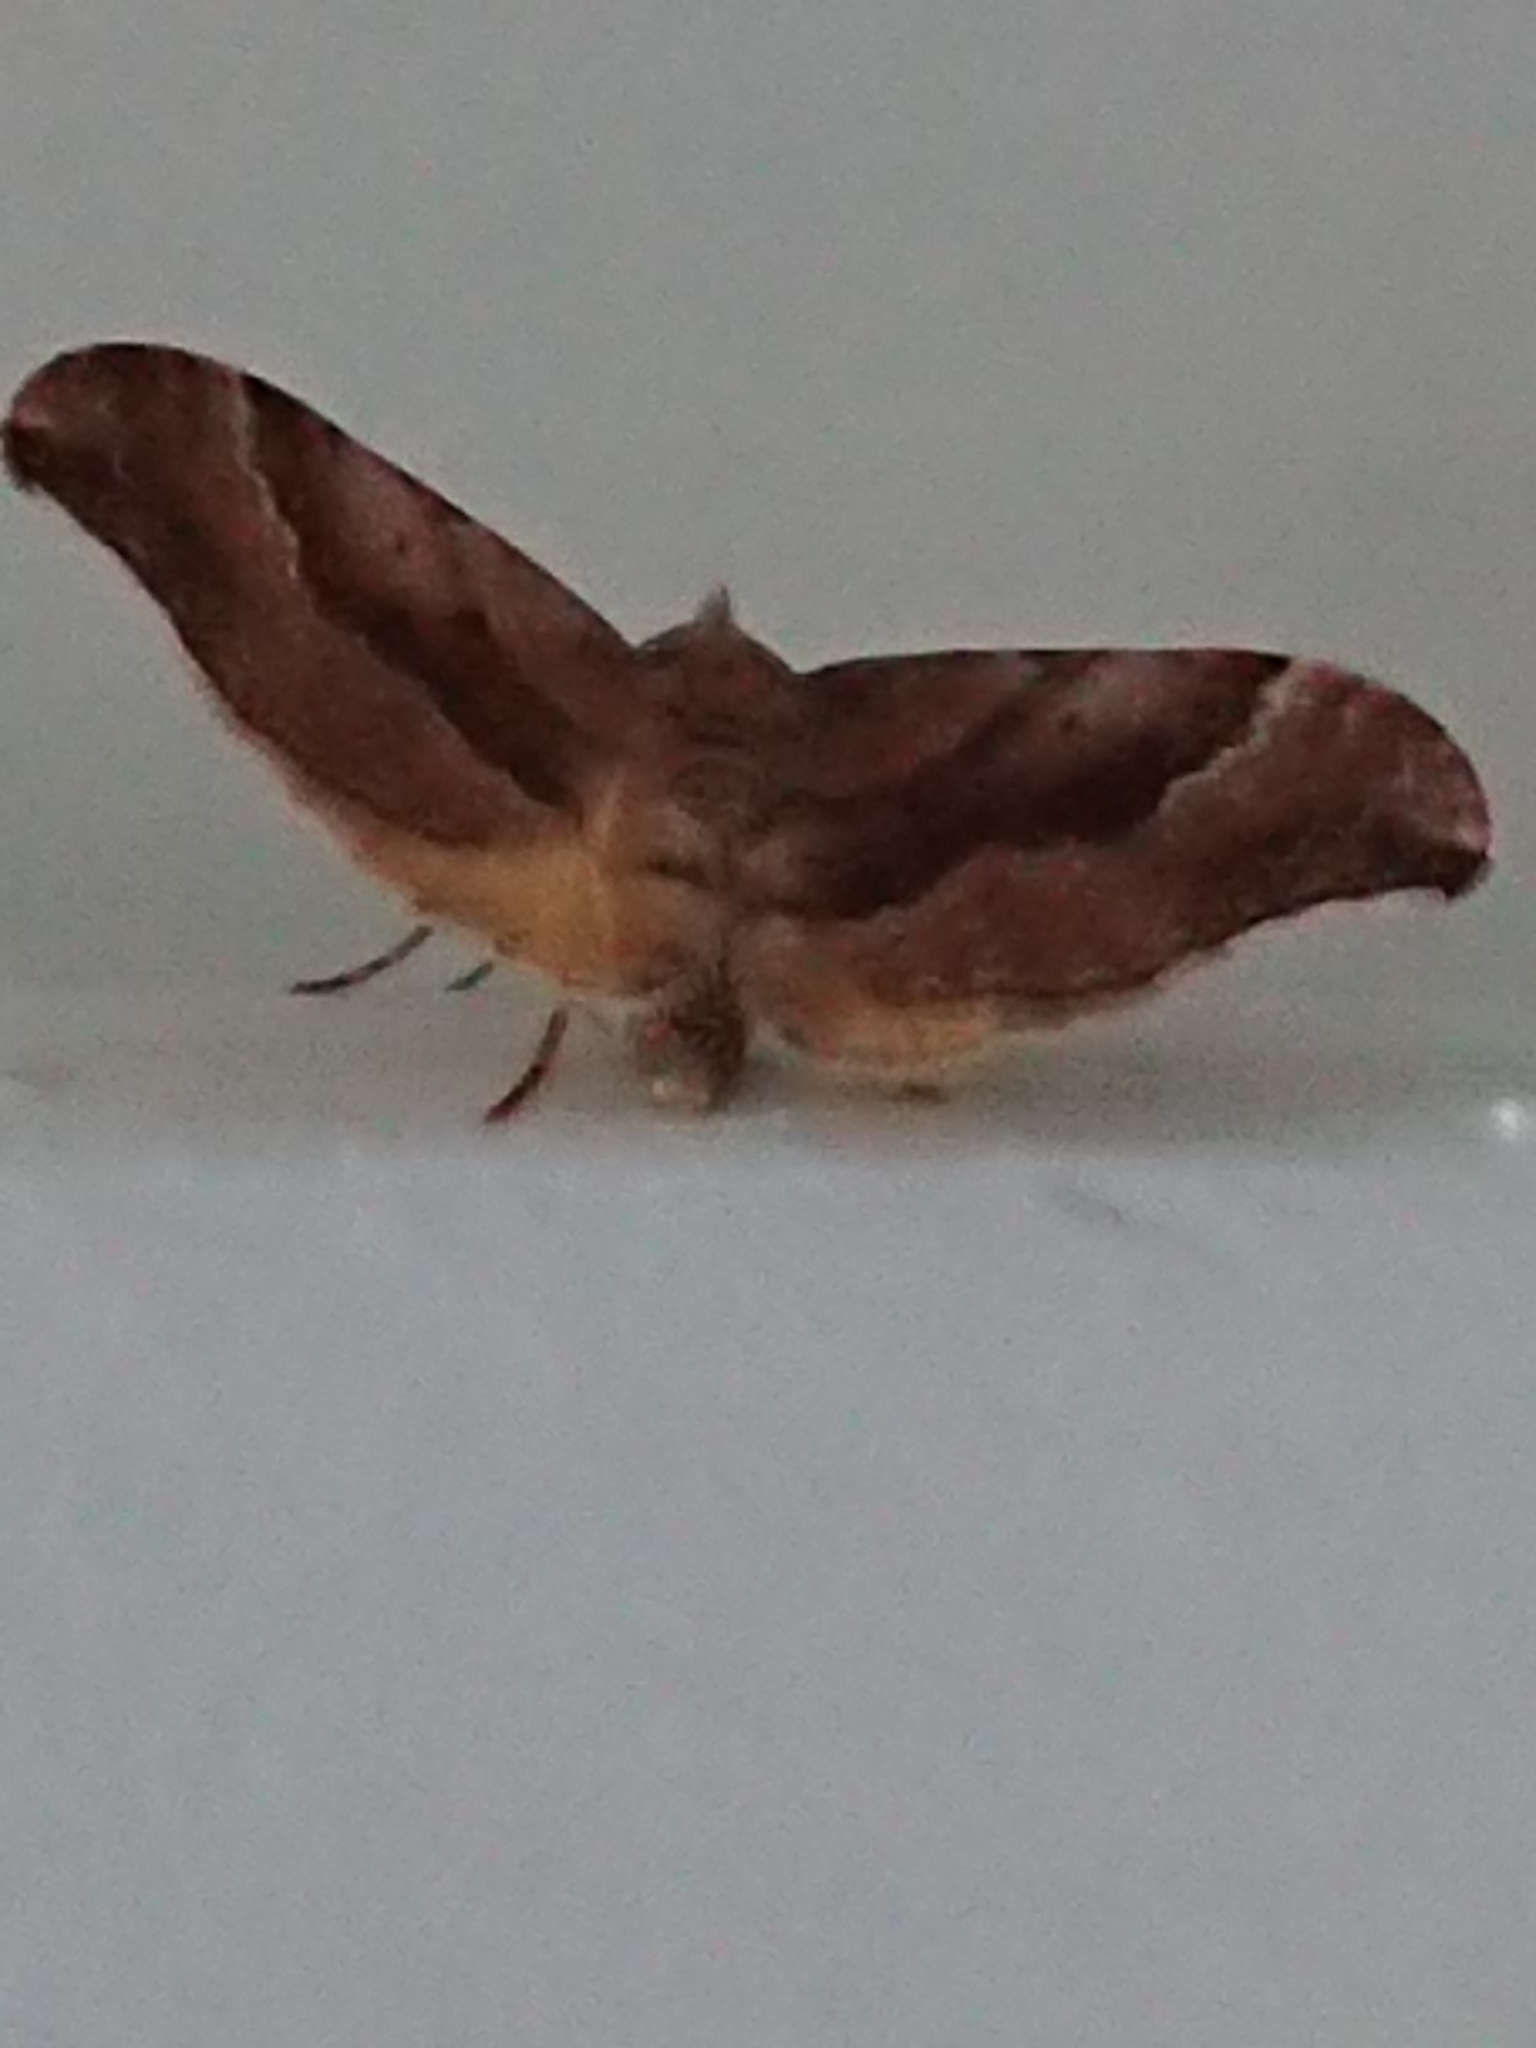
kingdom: Animalia
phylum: Arthropoda
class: Insecta
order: Lepidoptera
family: Geometridae
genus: Homodotis
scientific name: Homodotis megaspilata
